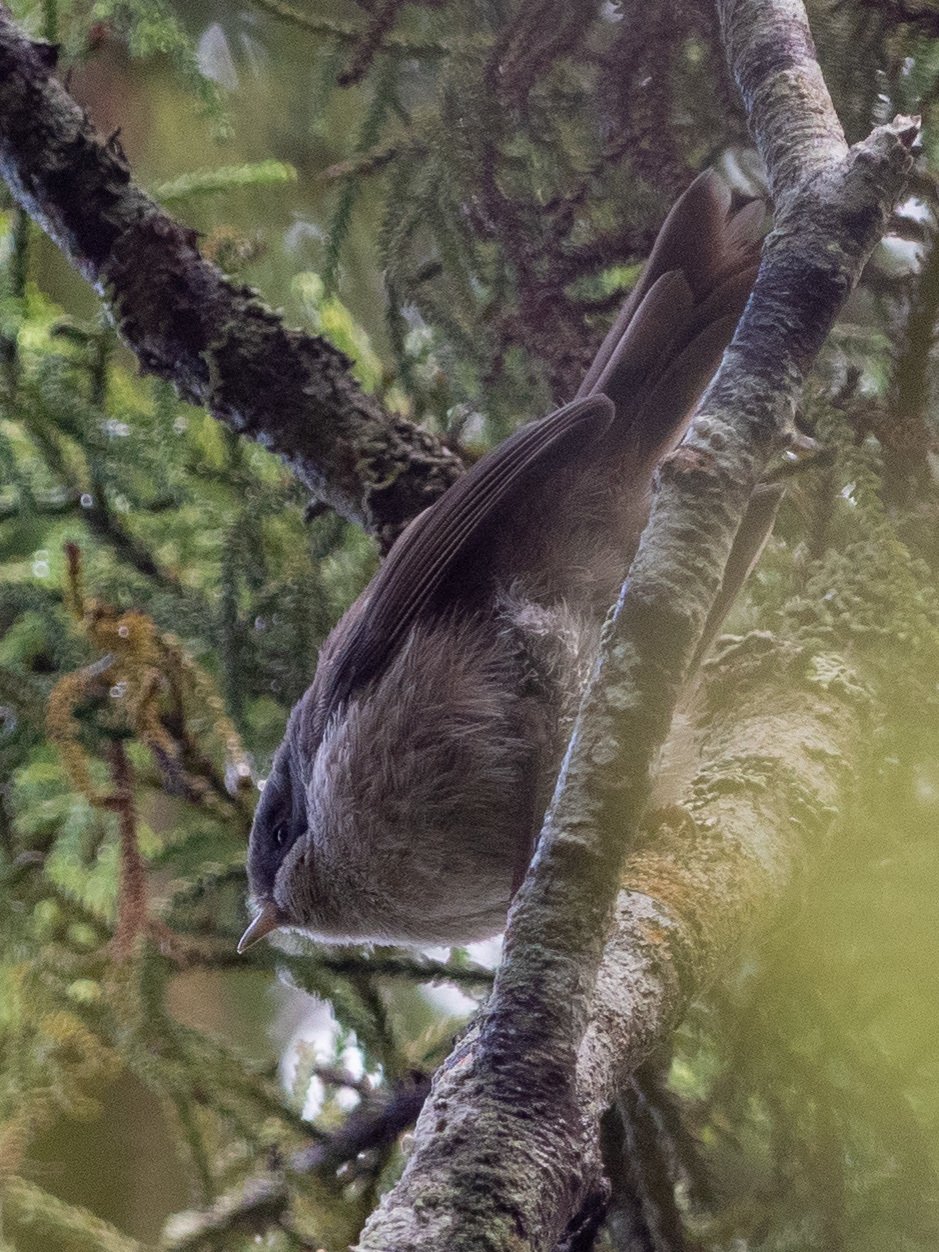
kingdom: Animalia
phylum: Chordata
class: Aves
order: Passeriformes
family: Acanthizidae
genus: Finschia
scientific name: Finschia novaeseelandiae
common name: Pipipi
